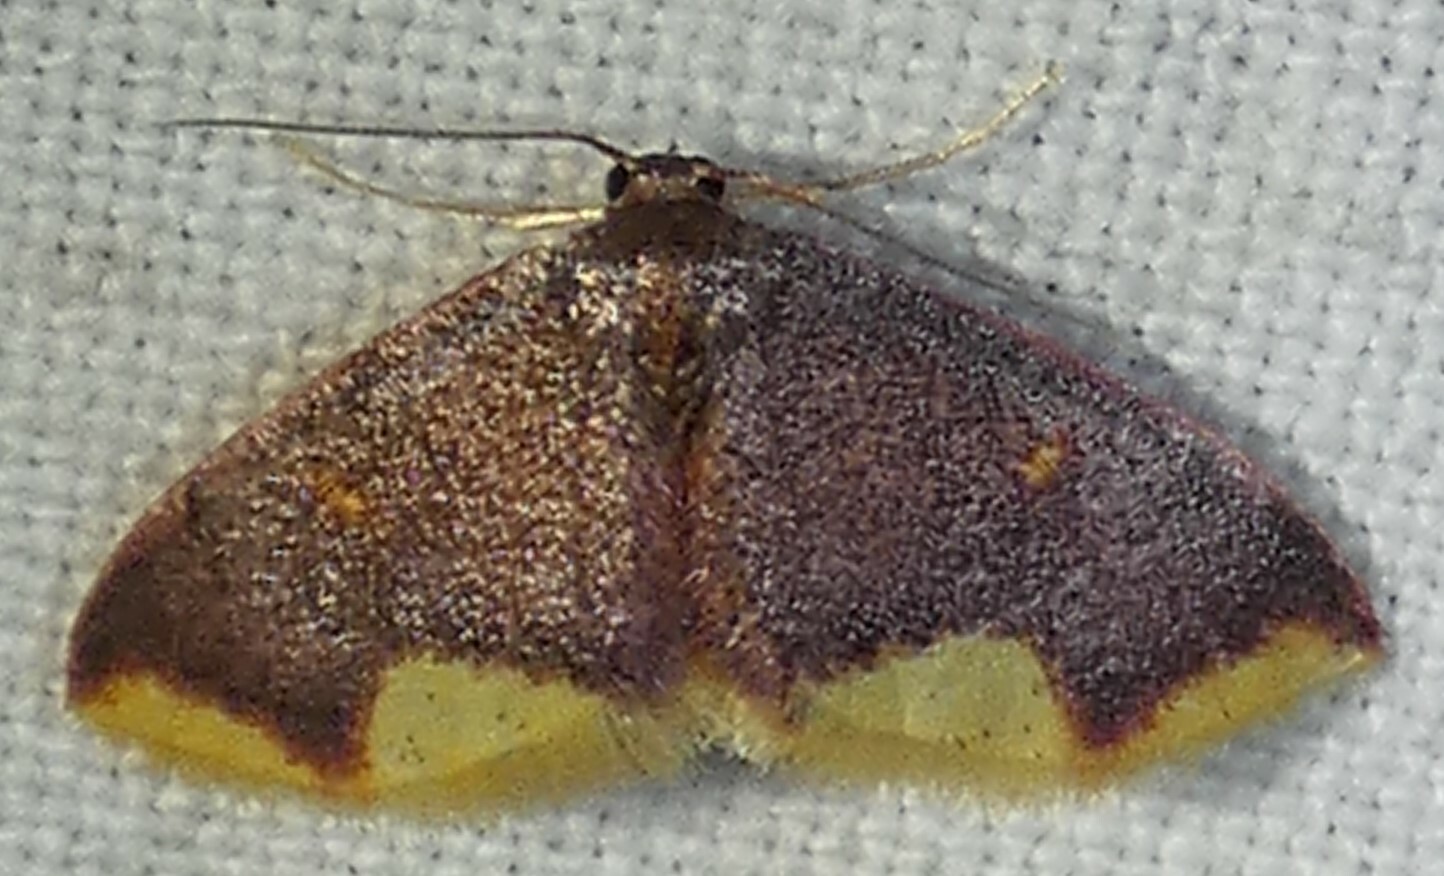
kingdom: Animalia
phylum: Arthropoda
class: Insecta
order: Lepidoptera
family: Geometridae
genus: Lophosis
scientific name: Lophosis labeculata
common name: Stained lophosis moth
